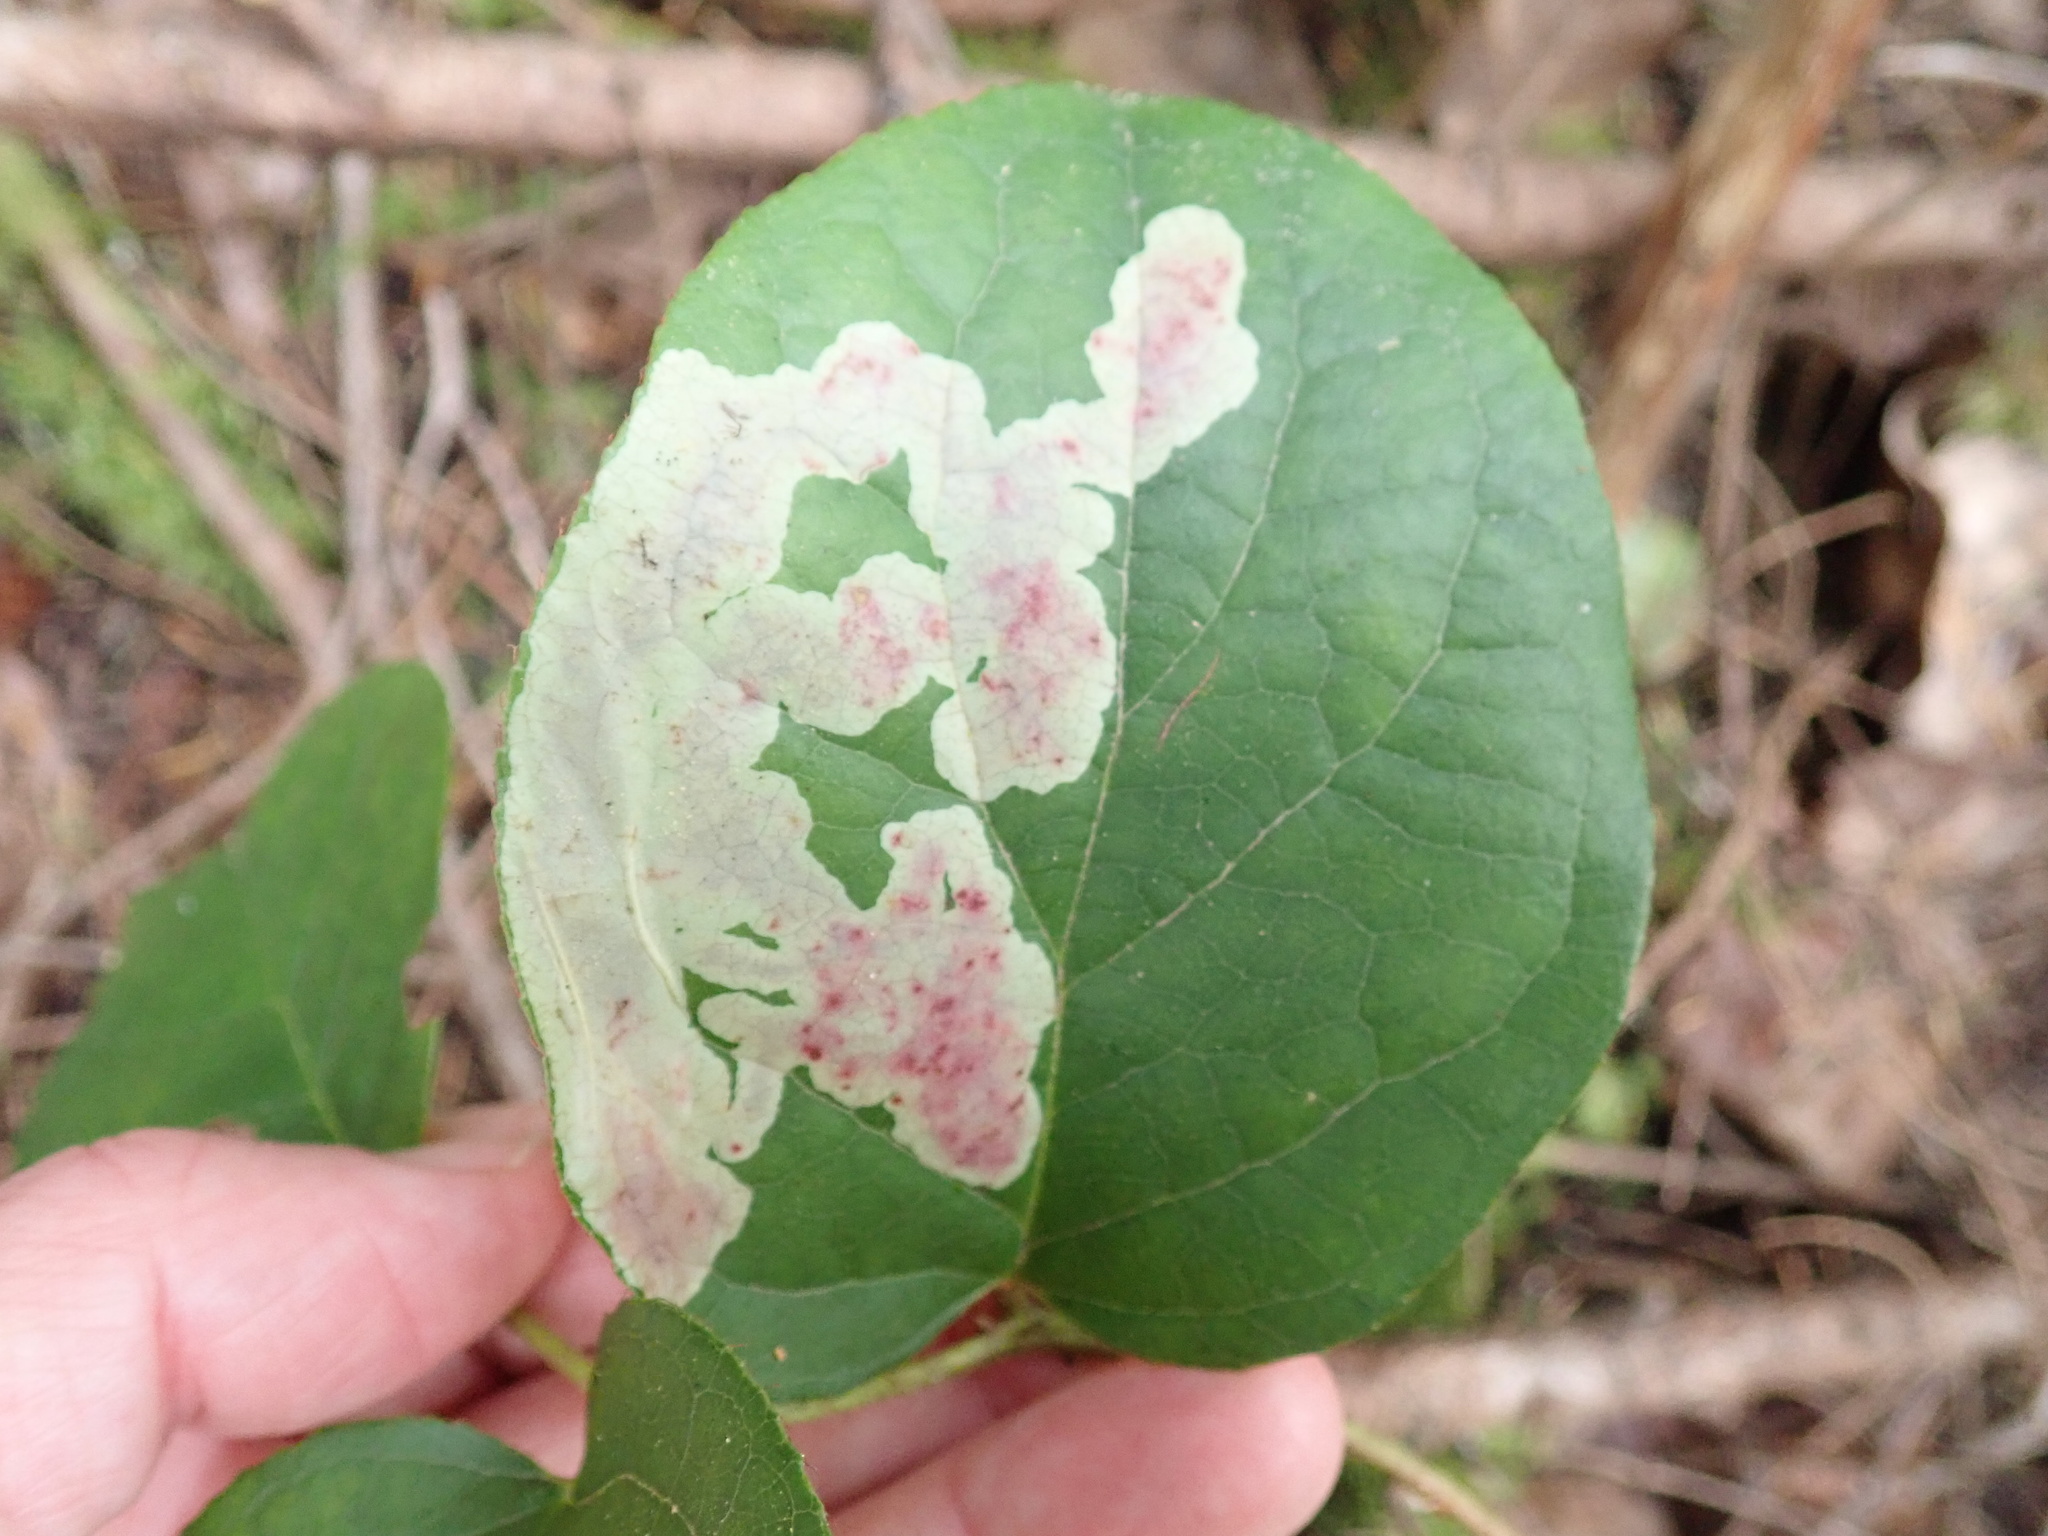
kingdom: Animalia
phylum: Arthropoda
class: Insecta
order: Lepidoptera
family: Gracillariidae
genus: Cameraria
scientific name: Cameraria gaultheriella
